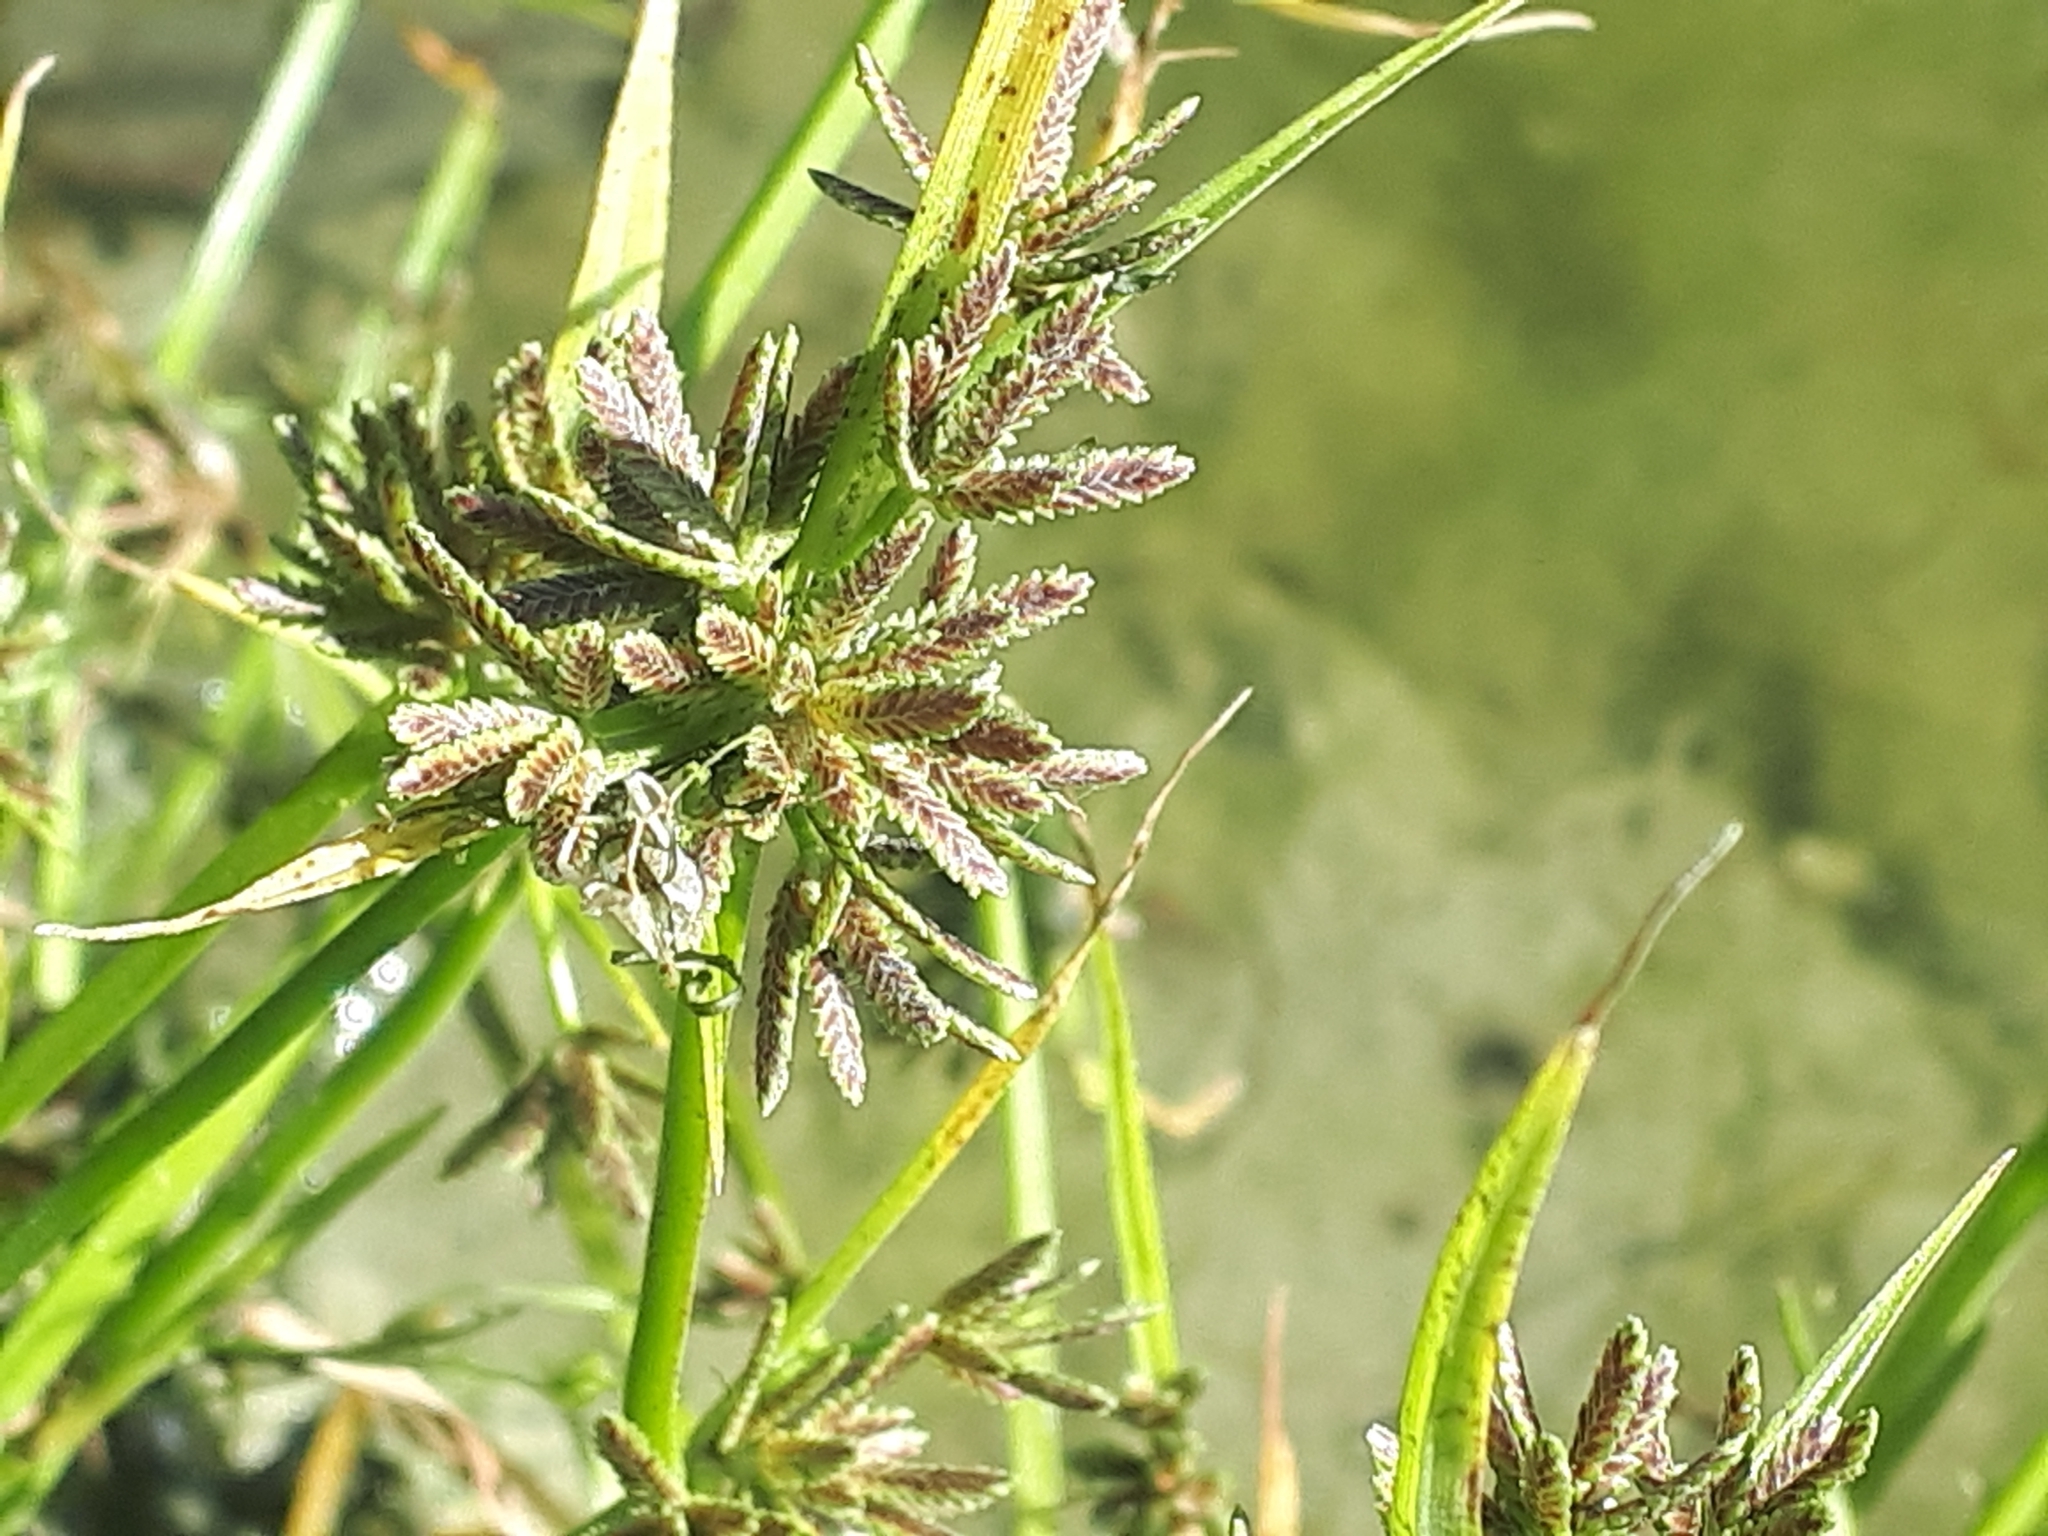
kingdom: Plantae
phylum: Tracheophyta
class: Liliopsida
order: Poales
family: Cyperaceae
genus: Cyperus
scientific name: Cyperus fuscus
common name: Brown galingale
